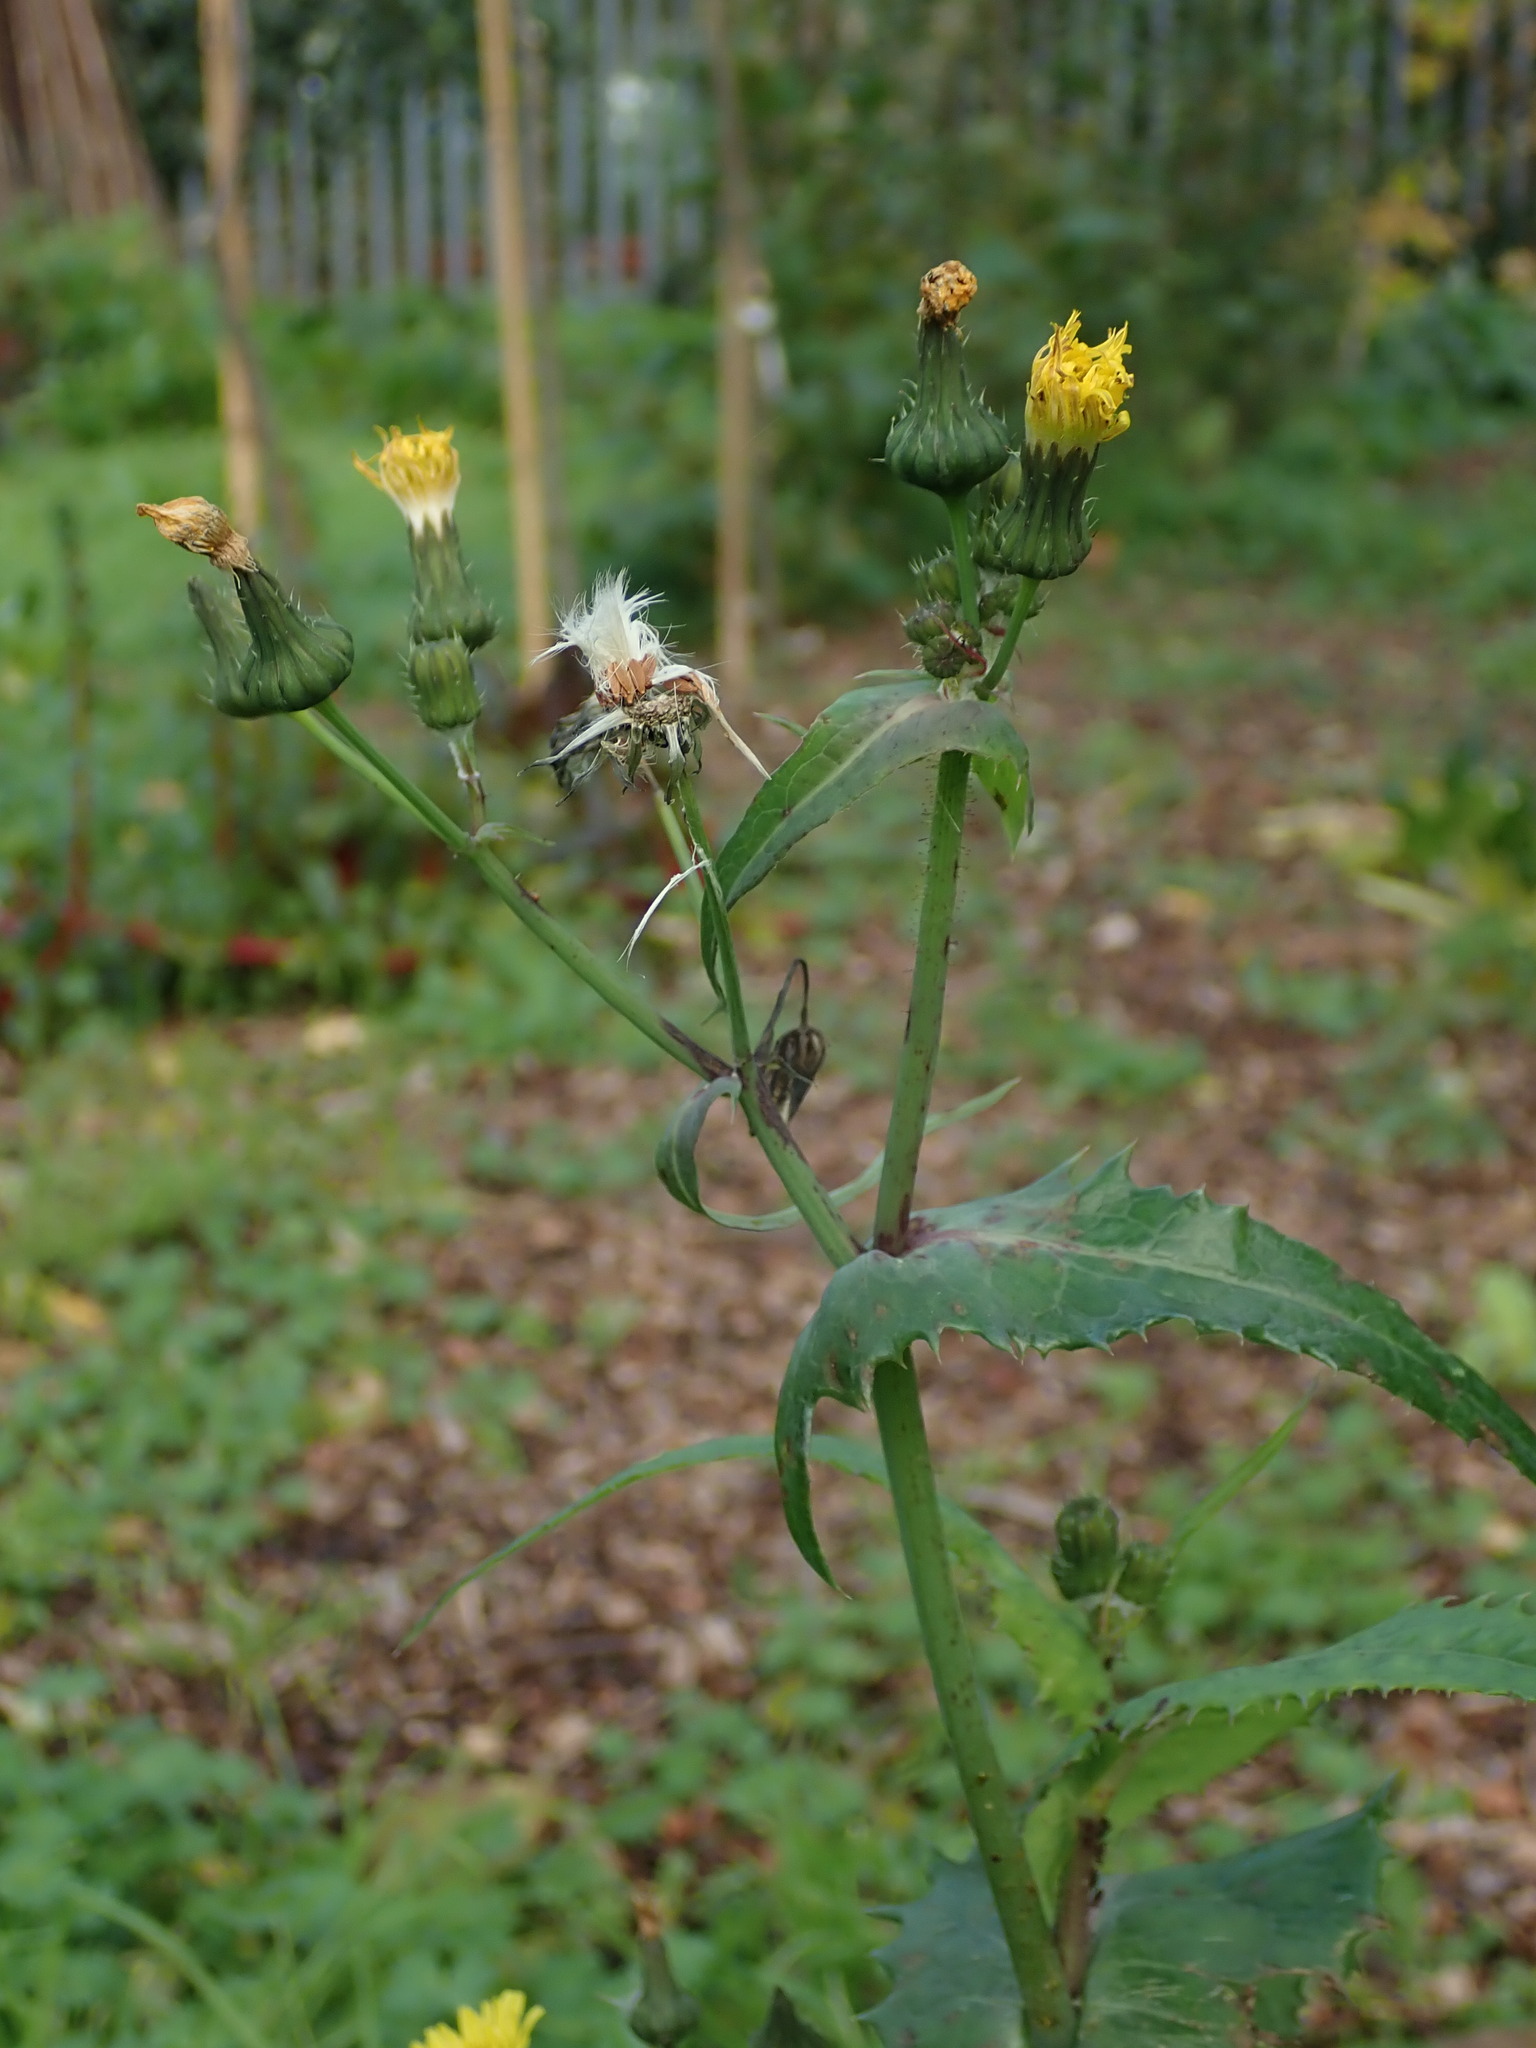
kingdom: Plantae
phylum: Tracheophyta
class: Magnoliopsida
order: Asterales
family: Asteraceae
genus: Sonchus
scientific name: Sonchus oleraceus
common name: Common sowthistle
